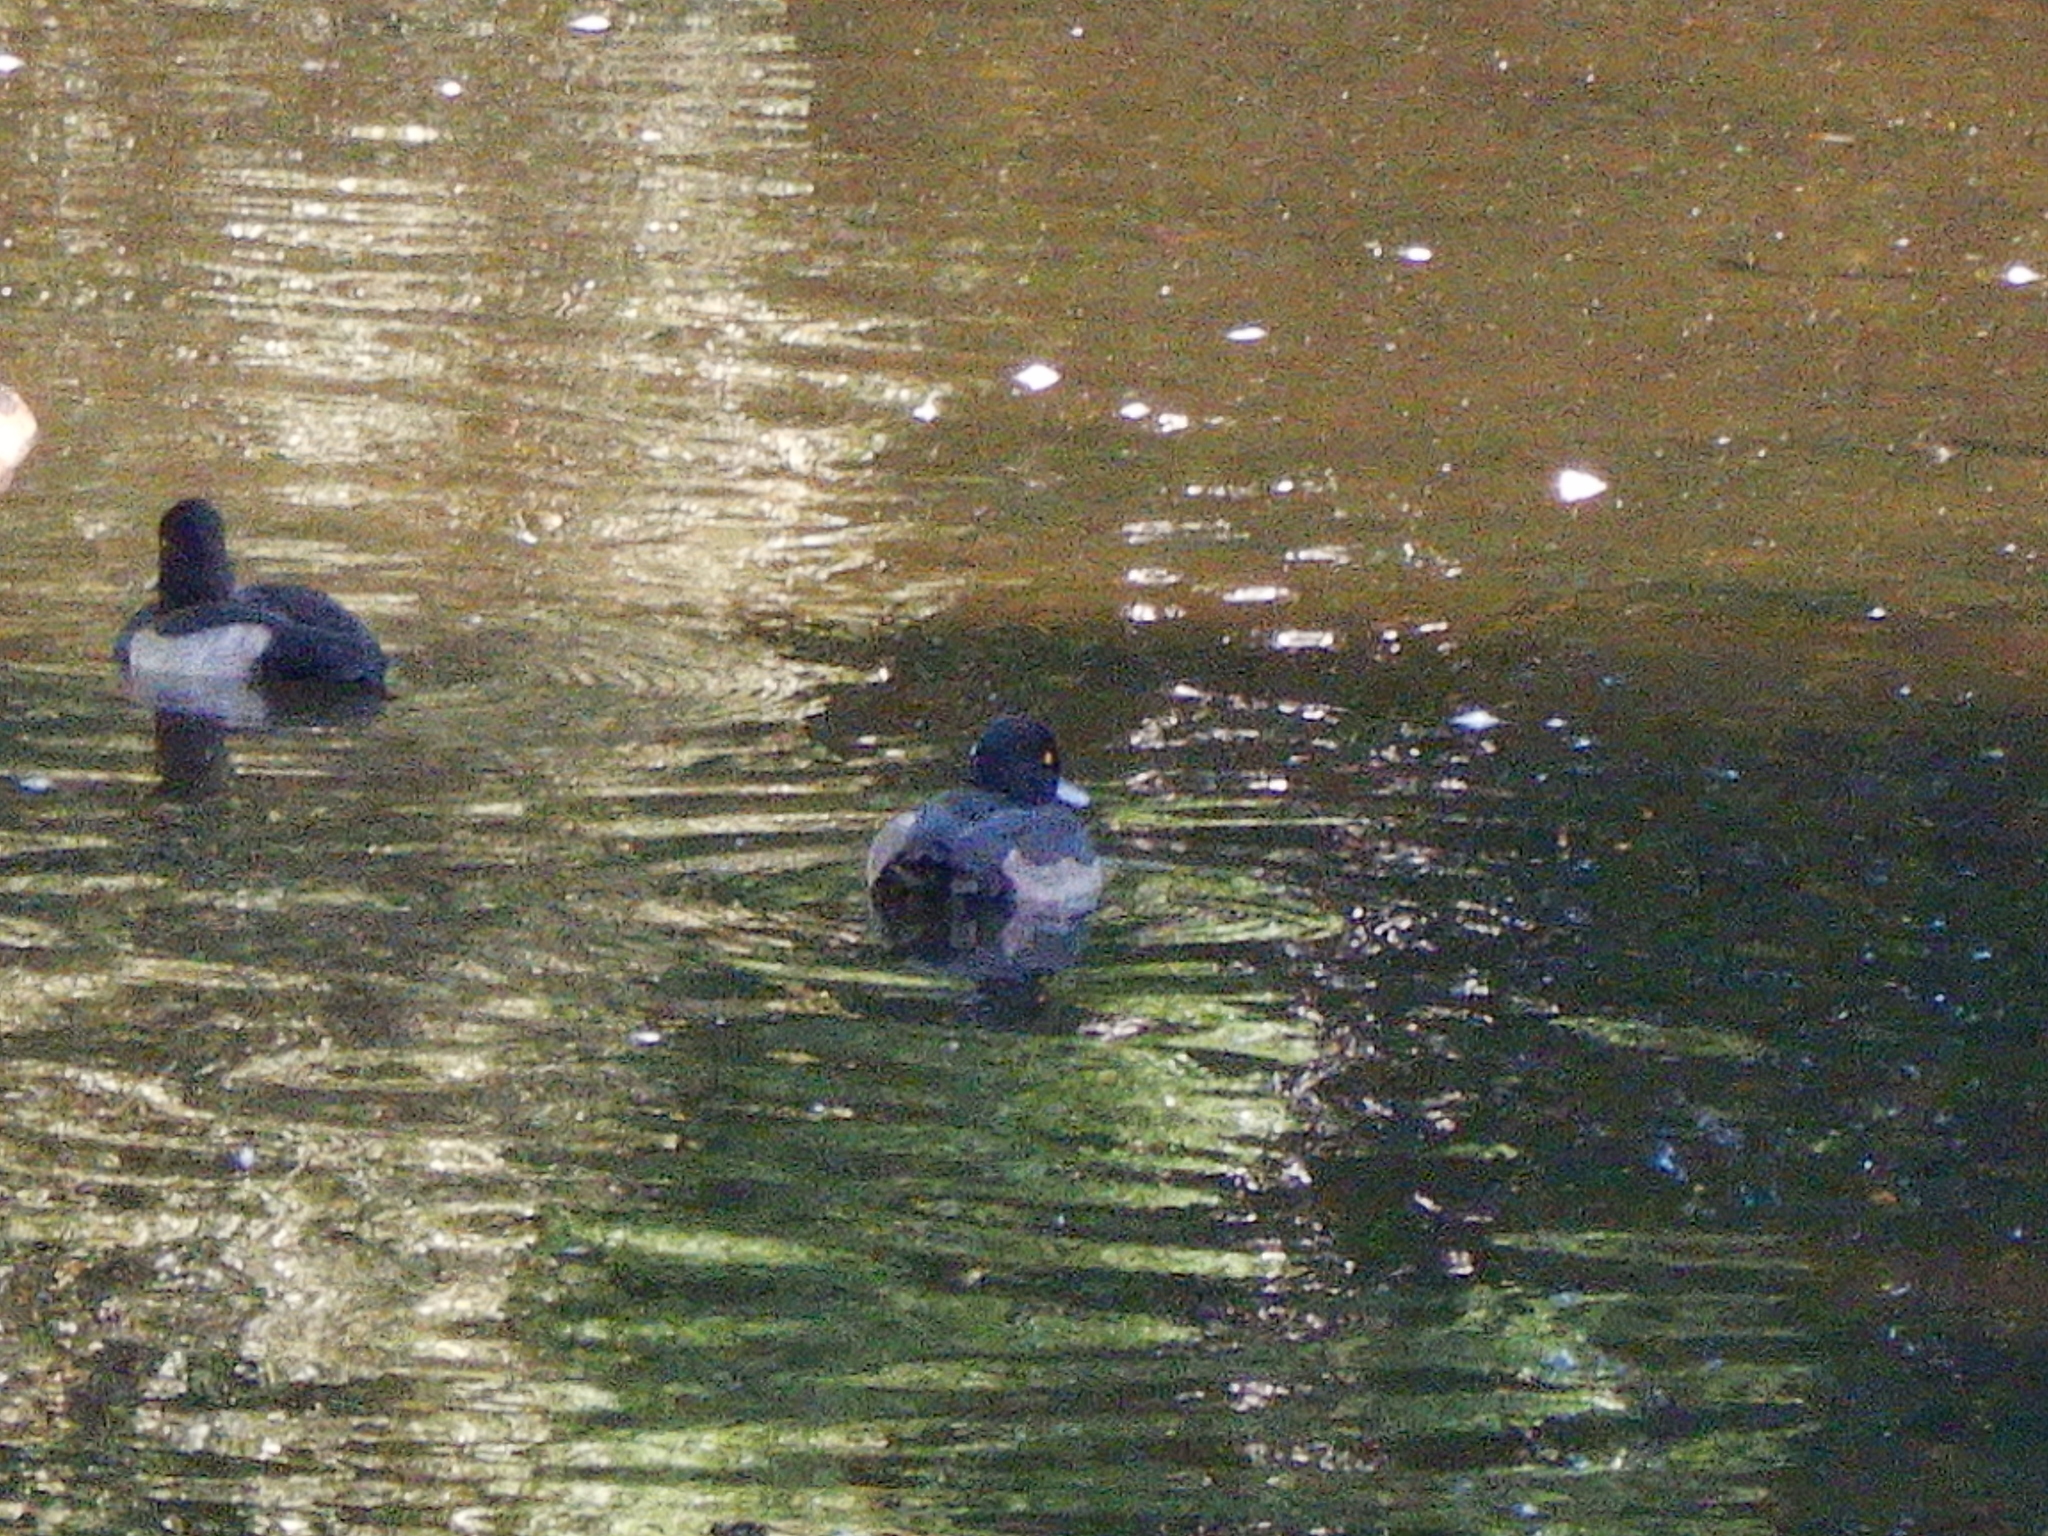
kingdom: Animalia
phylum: Chordata
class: Aves
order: Anseriformes
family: Anatidae
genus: Aythya
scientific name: Aythya fuligula
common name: Tufted duck
